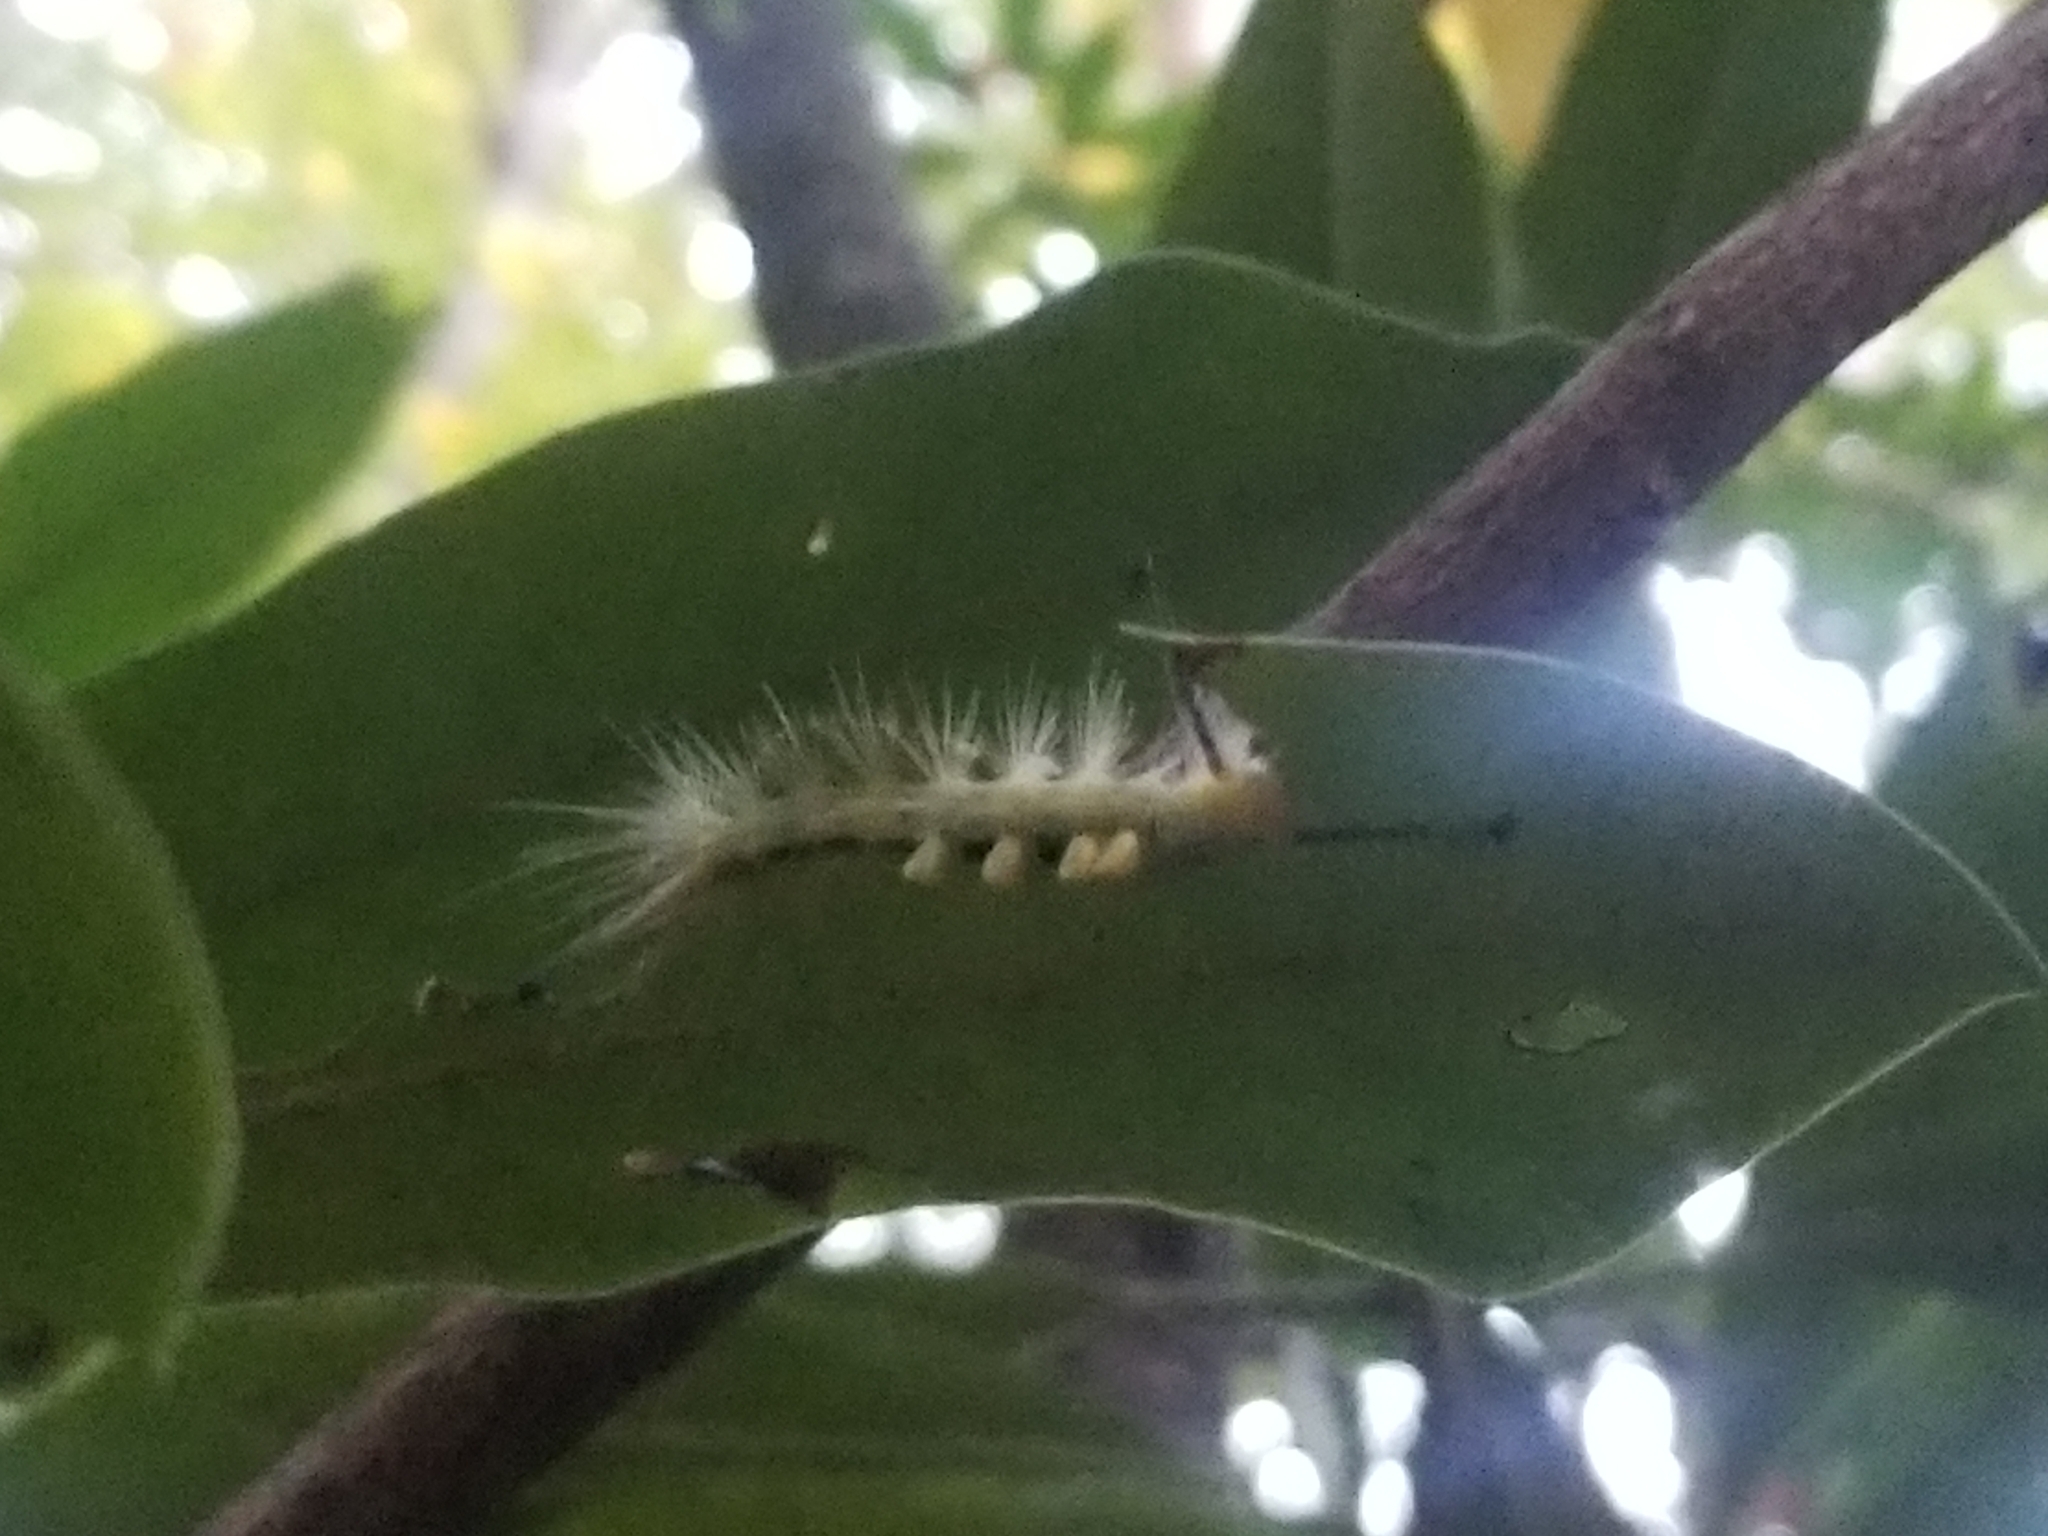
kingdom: Animalia
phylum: Arthropoda
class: Insecta
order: Lepidoptera
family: Erebidae
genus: Orgyia
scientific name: Orgyia definita
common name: Definite tussock moth
